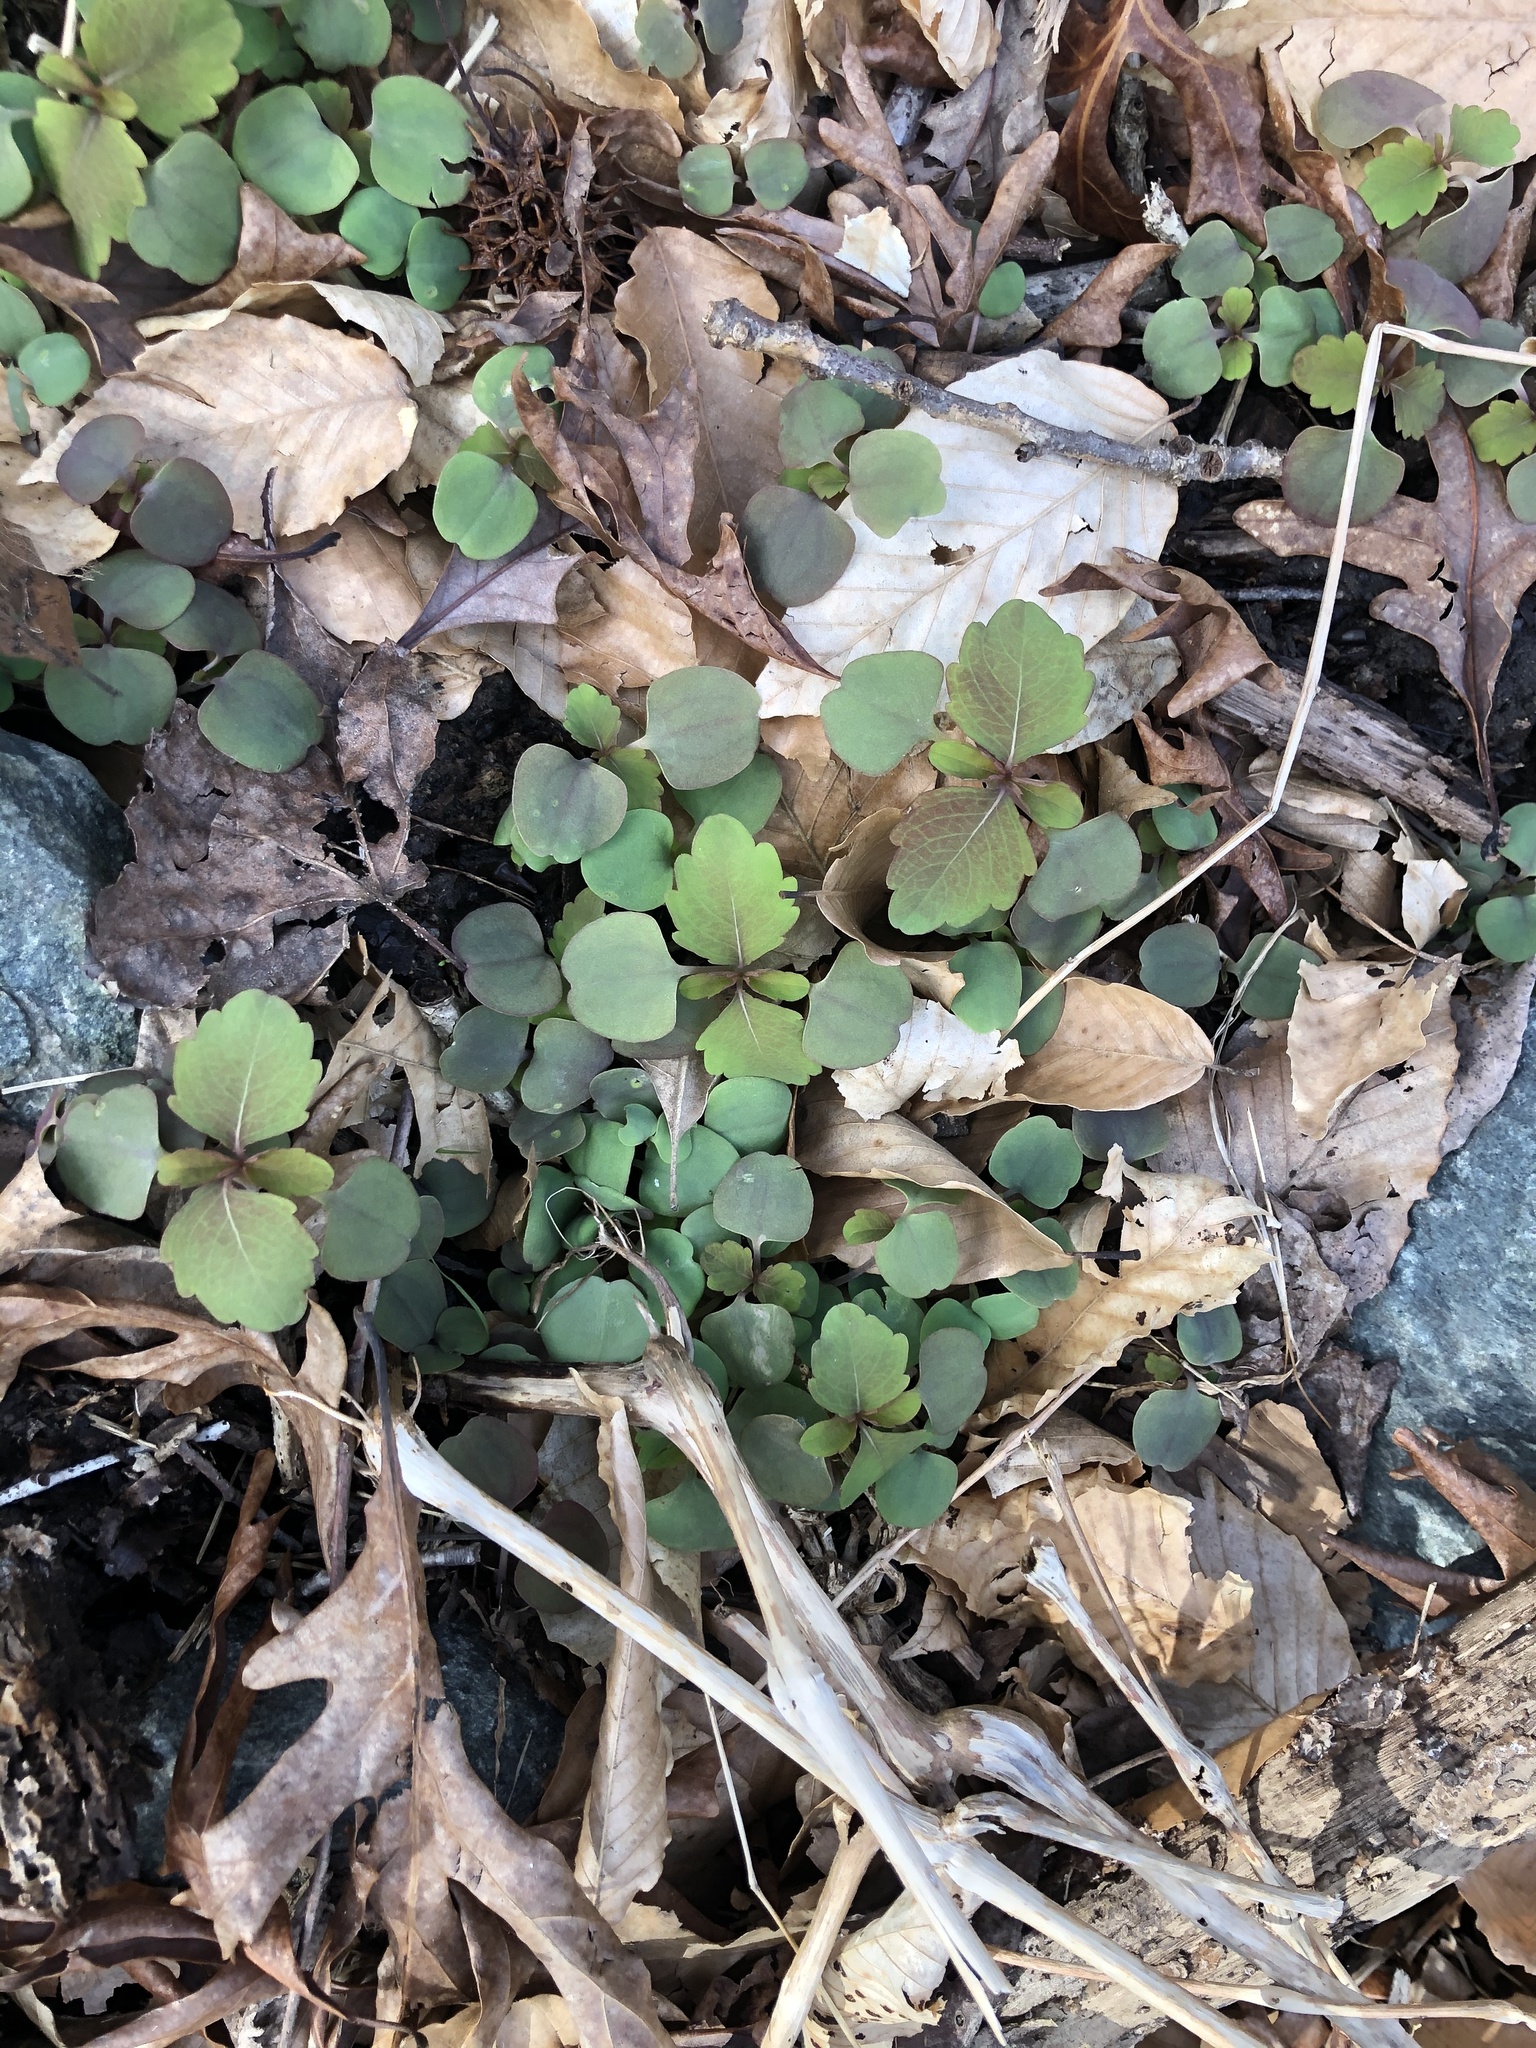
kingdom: Plantae
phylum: Tracheophyta
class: Magnoliopsida
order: Ericales
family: Balsaminaceae
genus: Impatiens
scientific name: Impatiens capensis
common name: Orange balsam
